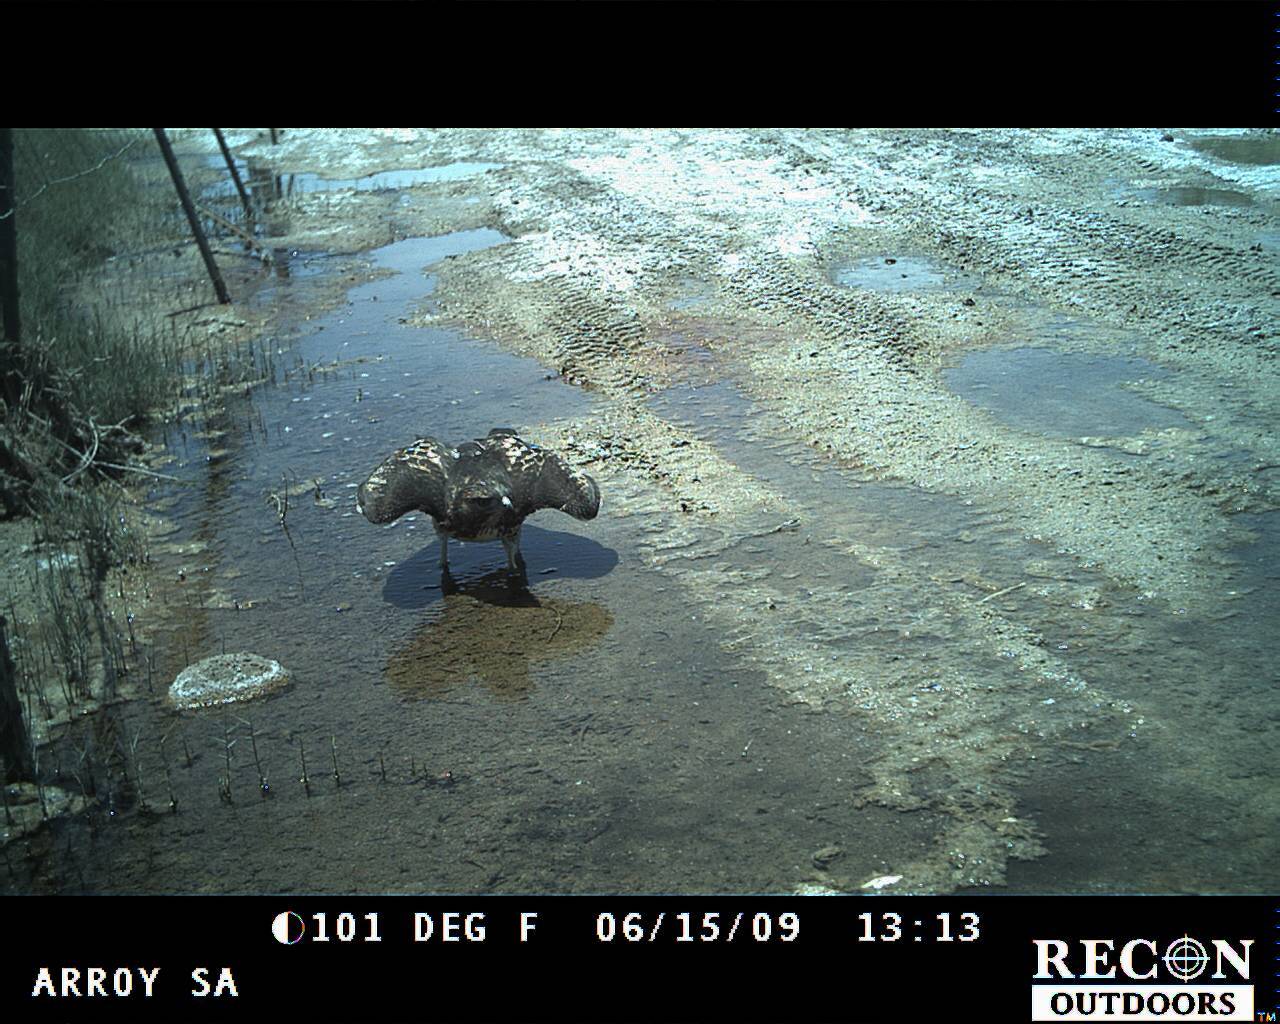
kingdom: Animalia
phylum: Chordata
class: Aves
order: Accipitriformes
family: Accipitridae
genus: Buteo
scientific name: Buteo jamaicensis
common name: Red-tailed hawk
